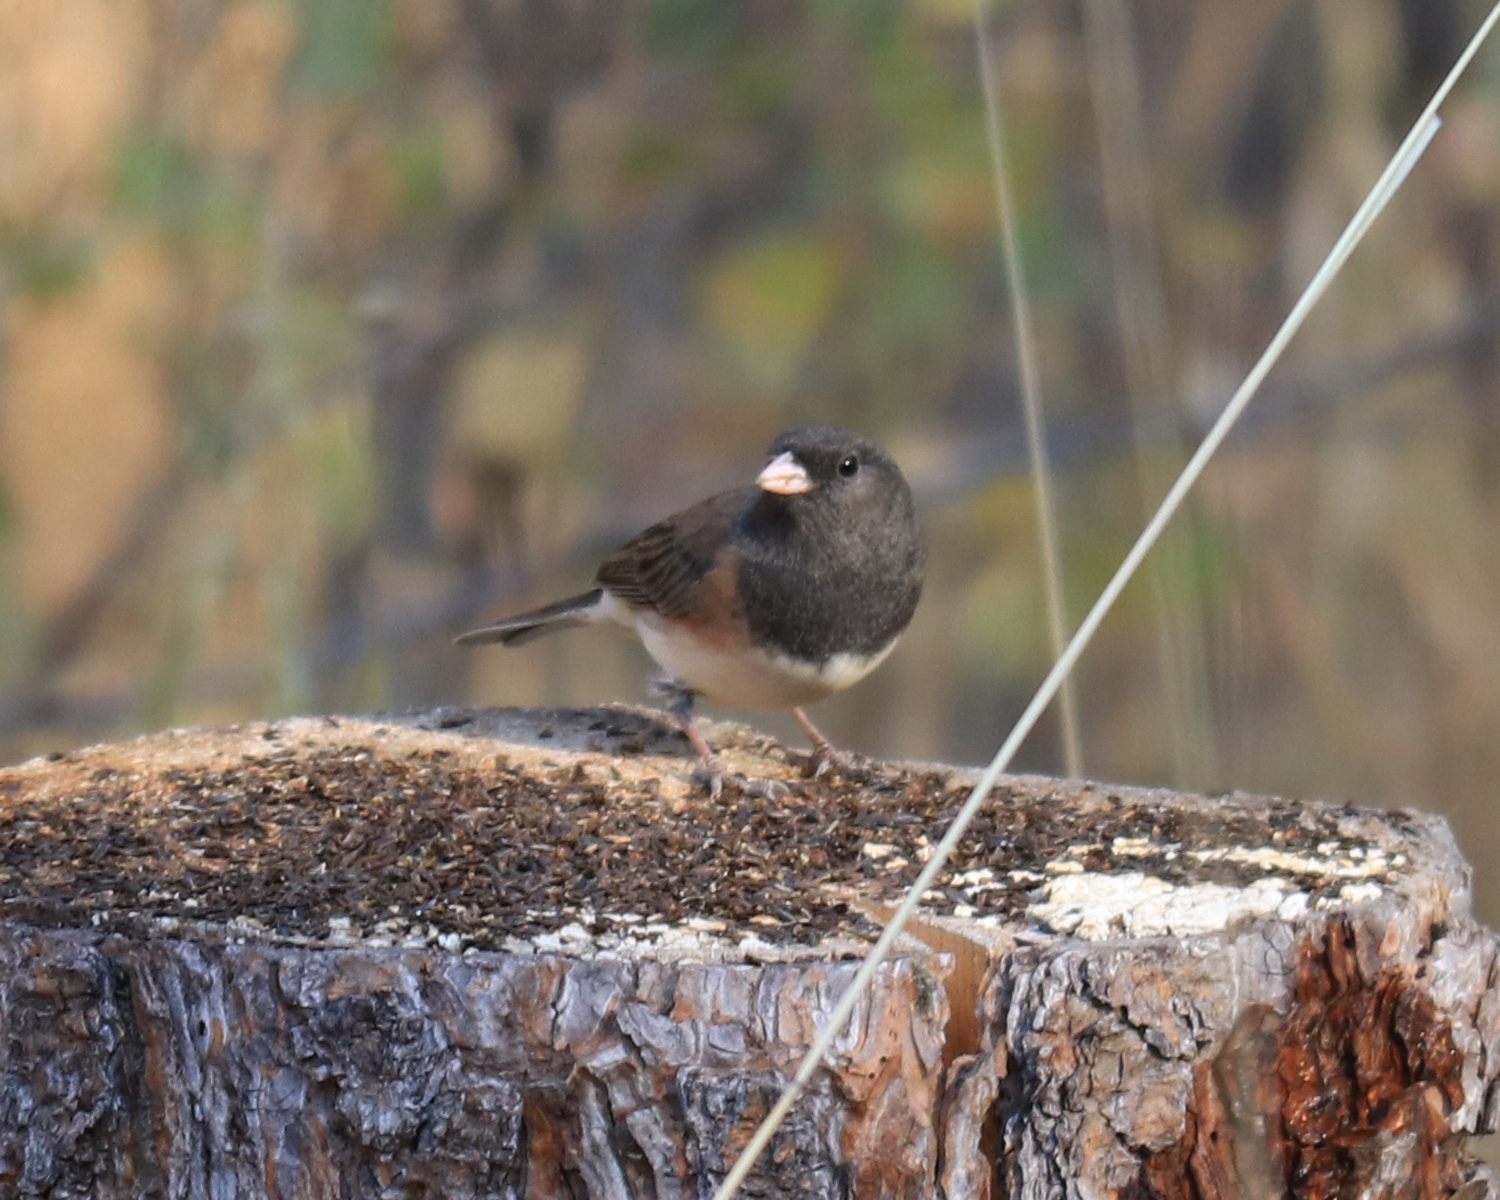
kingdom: Animalia
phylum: Chordata
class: Aves
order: Passeriformes
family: Passerellidae
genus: Junco
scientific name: Junco hyemalis
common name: Dark-eyed junco
